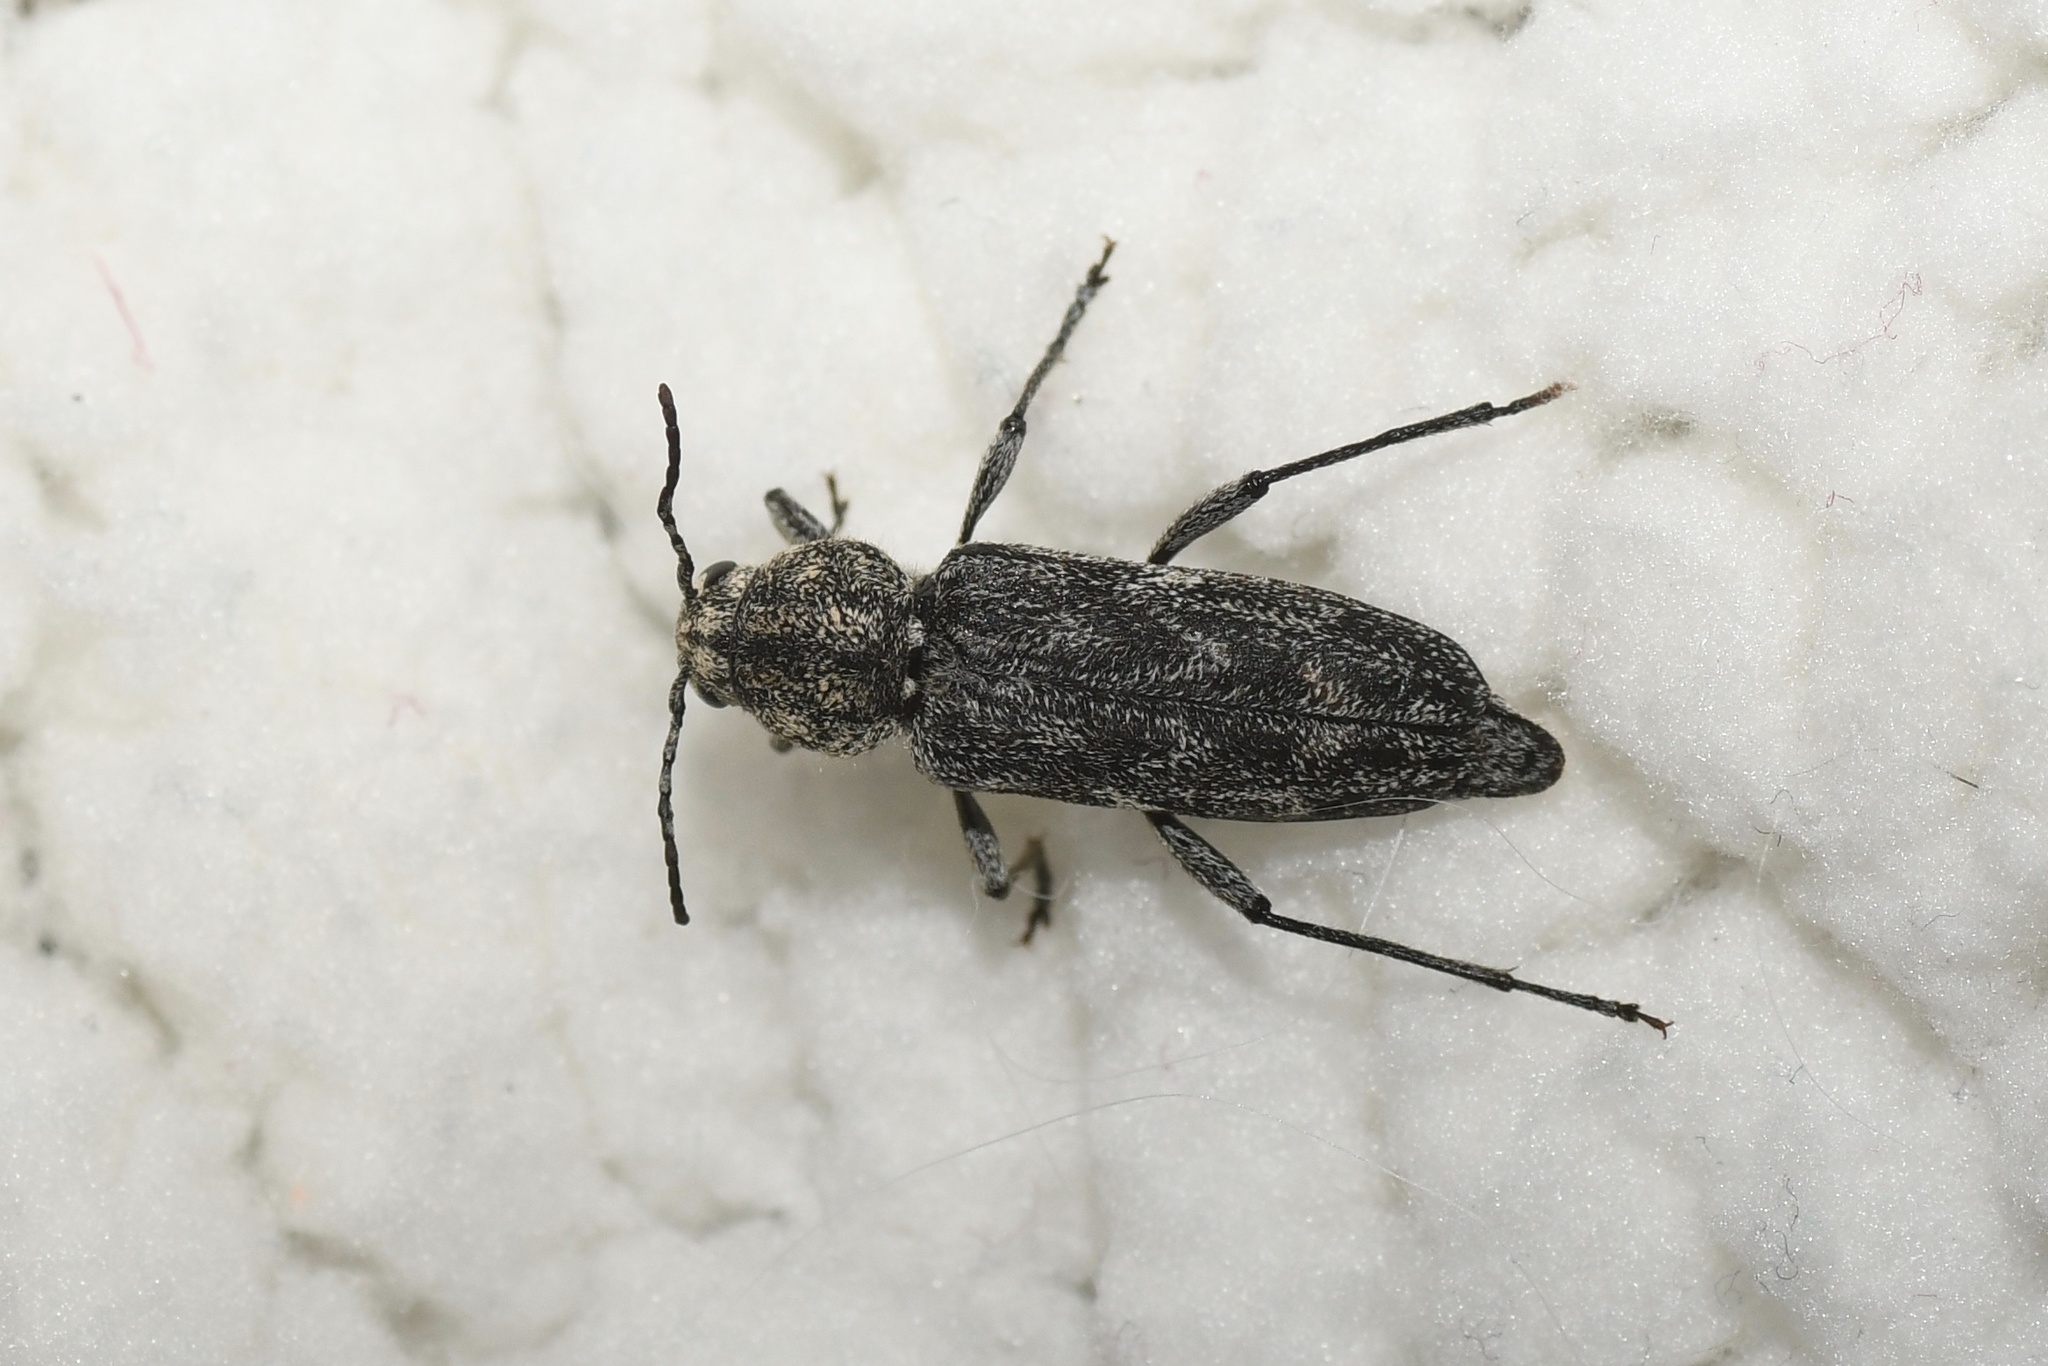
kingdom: Animalia
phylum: Arthropoda
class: Insecta
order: Coleoptera
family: Cerambycidae
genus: Xylotrechus
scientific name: Xylotrechus annosus
